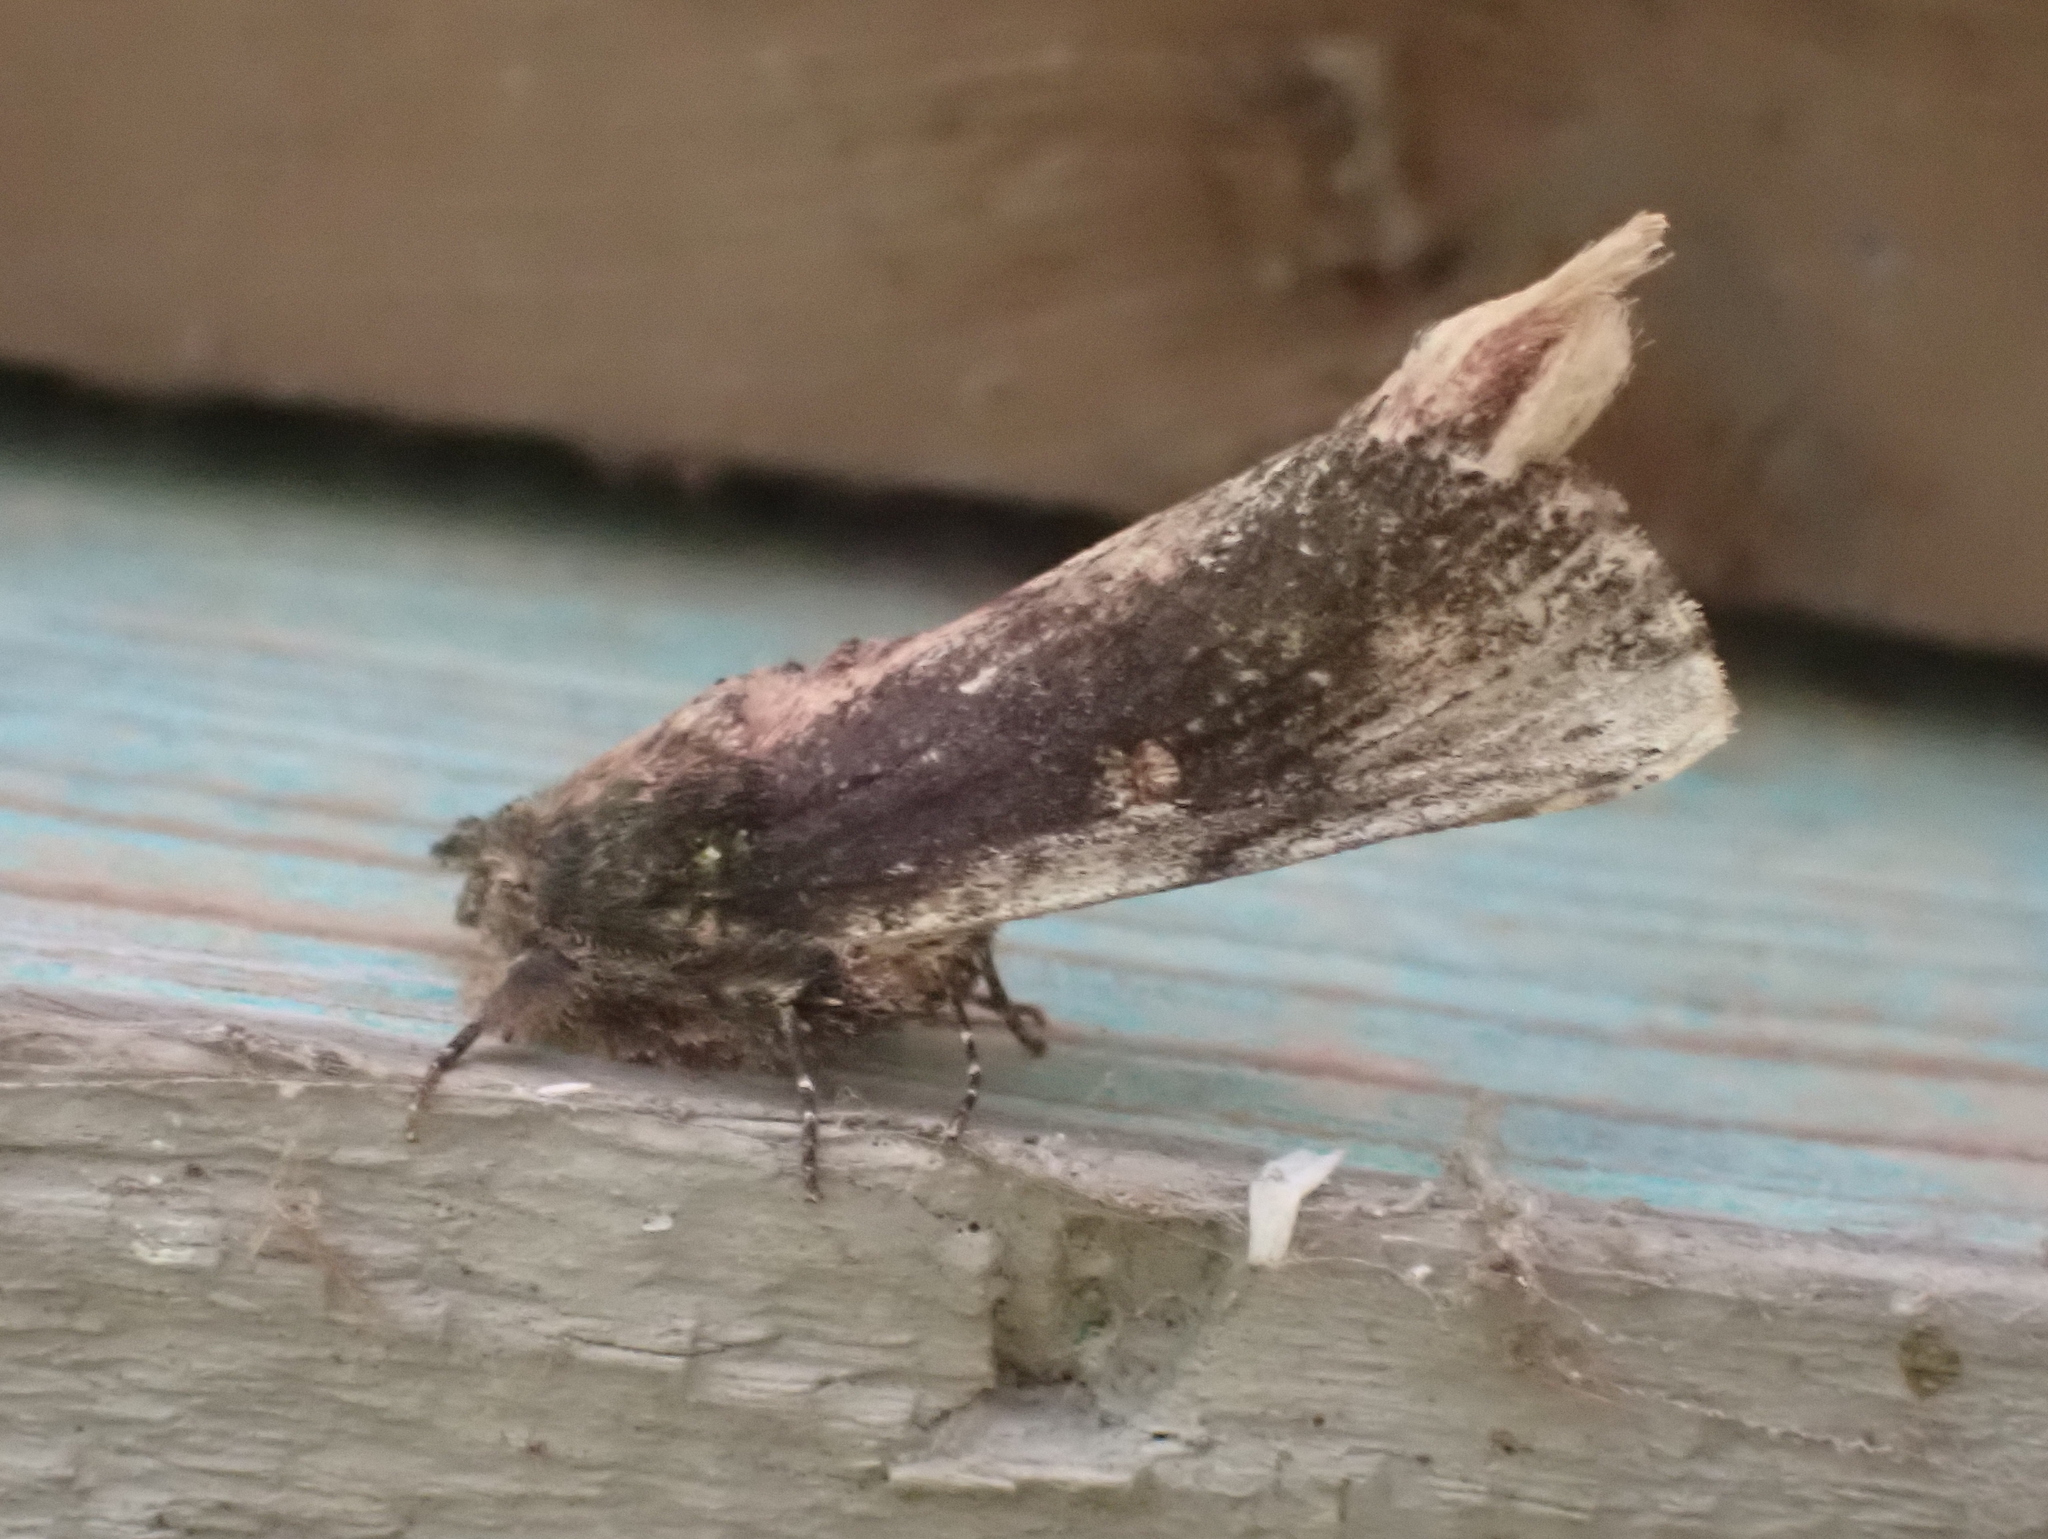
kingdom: Animalia
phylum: Arthropoda
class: Insecta
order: Lepidoptera
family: Notodontidae
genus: Schizura
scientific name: Schizura ipomaeae
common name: Morning-glory prominent
